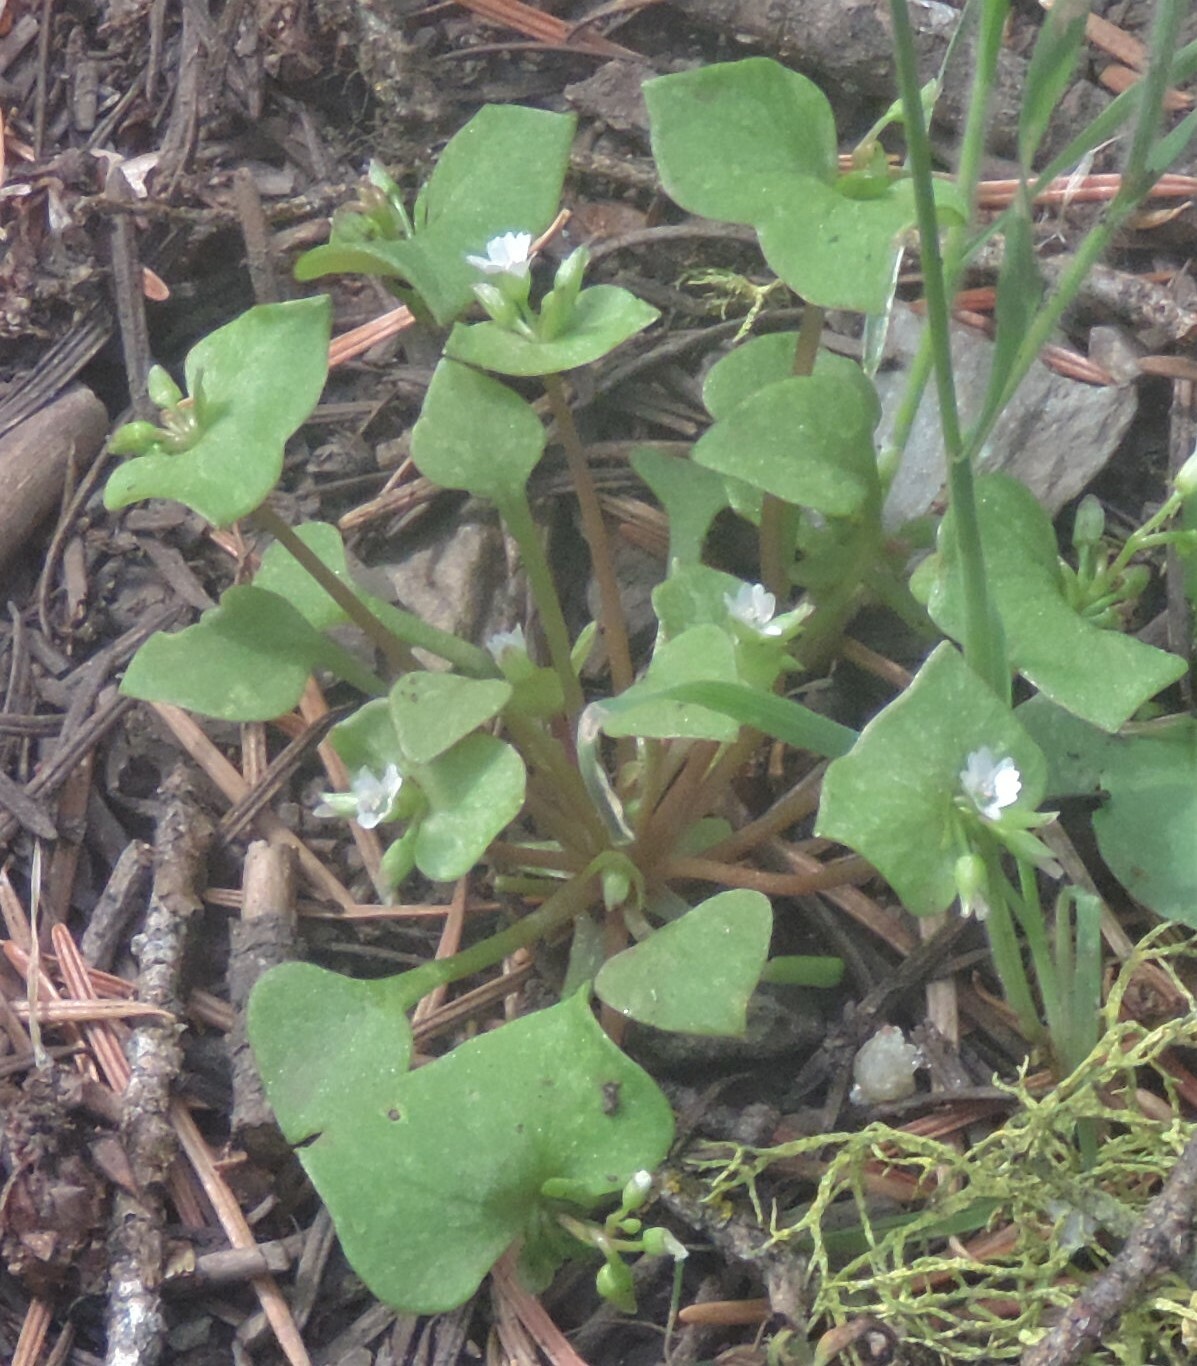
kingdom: Plantae
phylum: Tracheophyta
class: Magnoliopsida
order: Caryophyllales
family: Montiaceae
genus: Claytonia
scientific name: Claytonia rubra
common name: Erubescent miner's-lettuce
